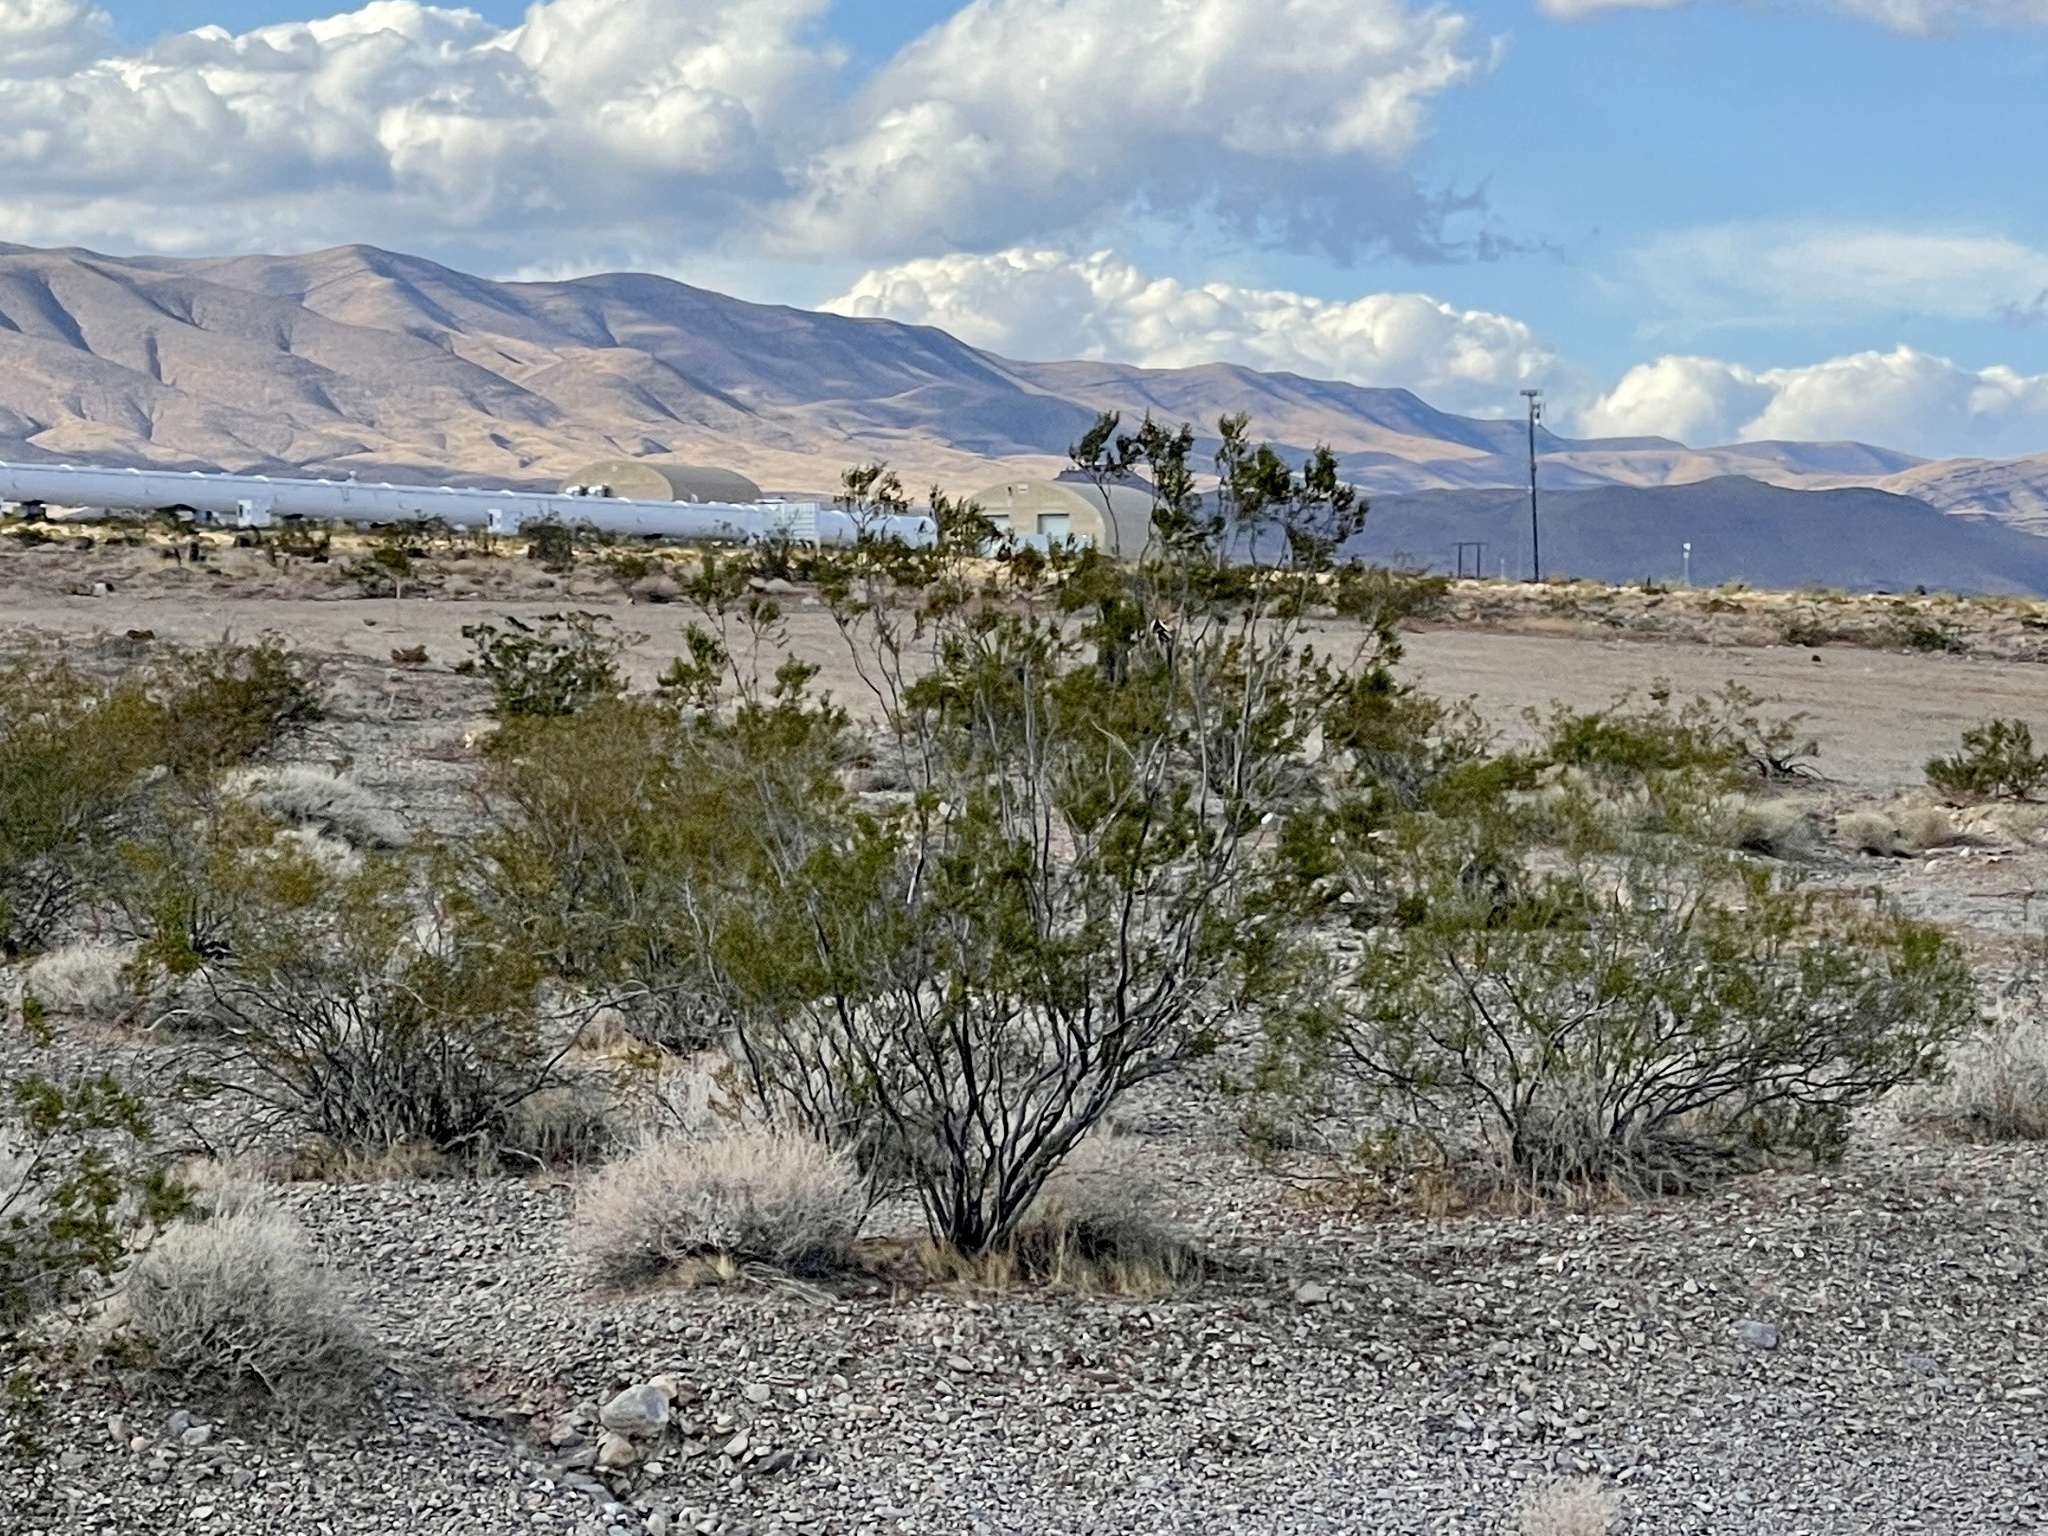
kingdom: Plantae
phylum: Tracheophyta
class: Magnoliopsida
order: Zygophyllales
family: Zygophyllaceae
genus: Larrea
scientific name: Larrea tridentata
